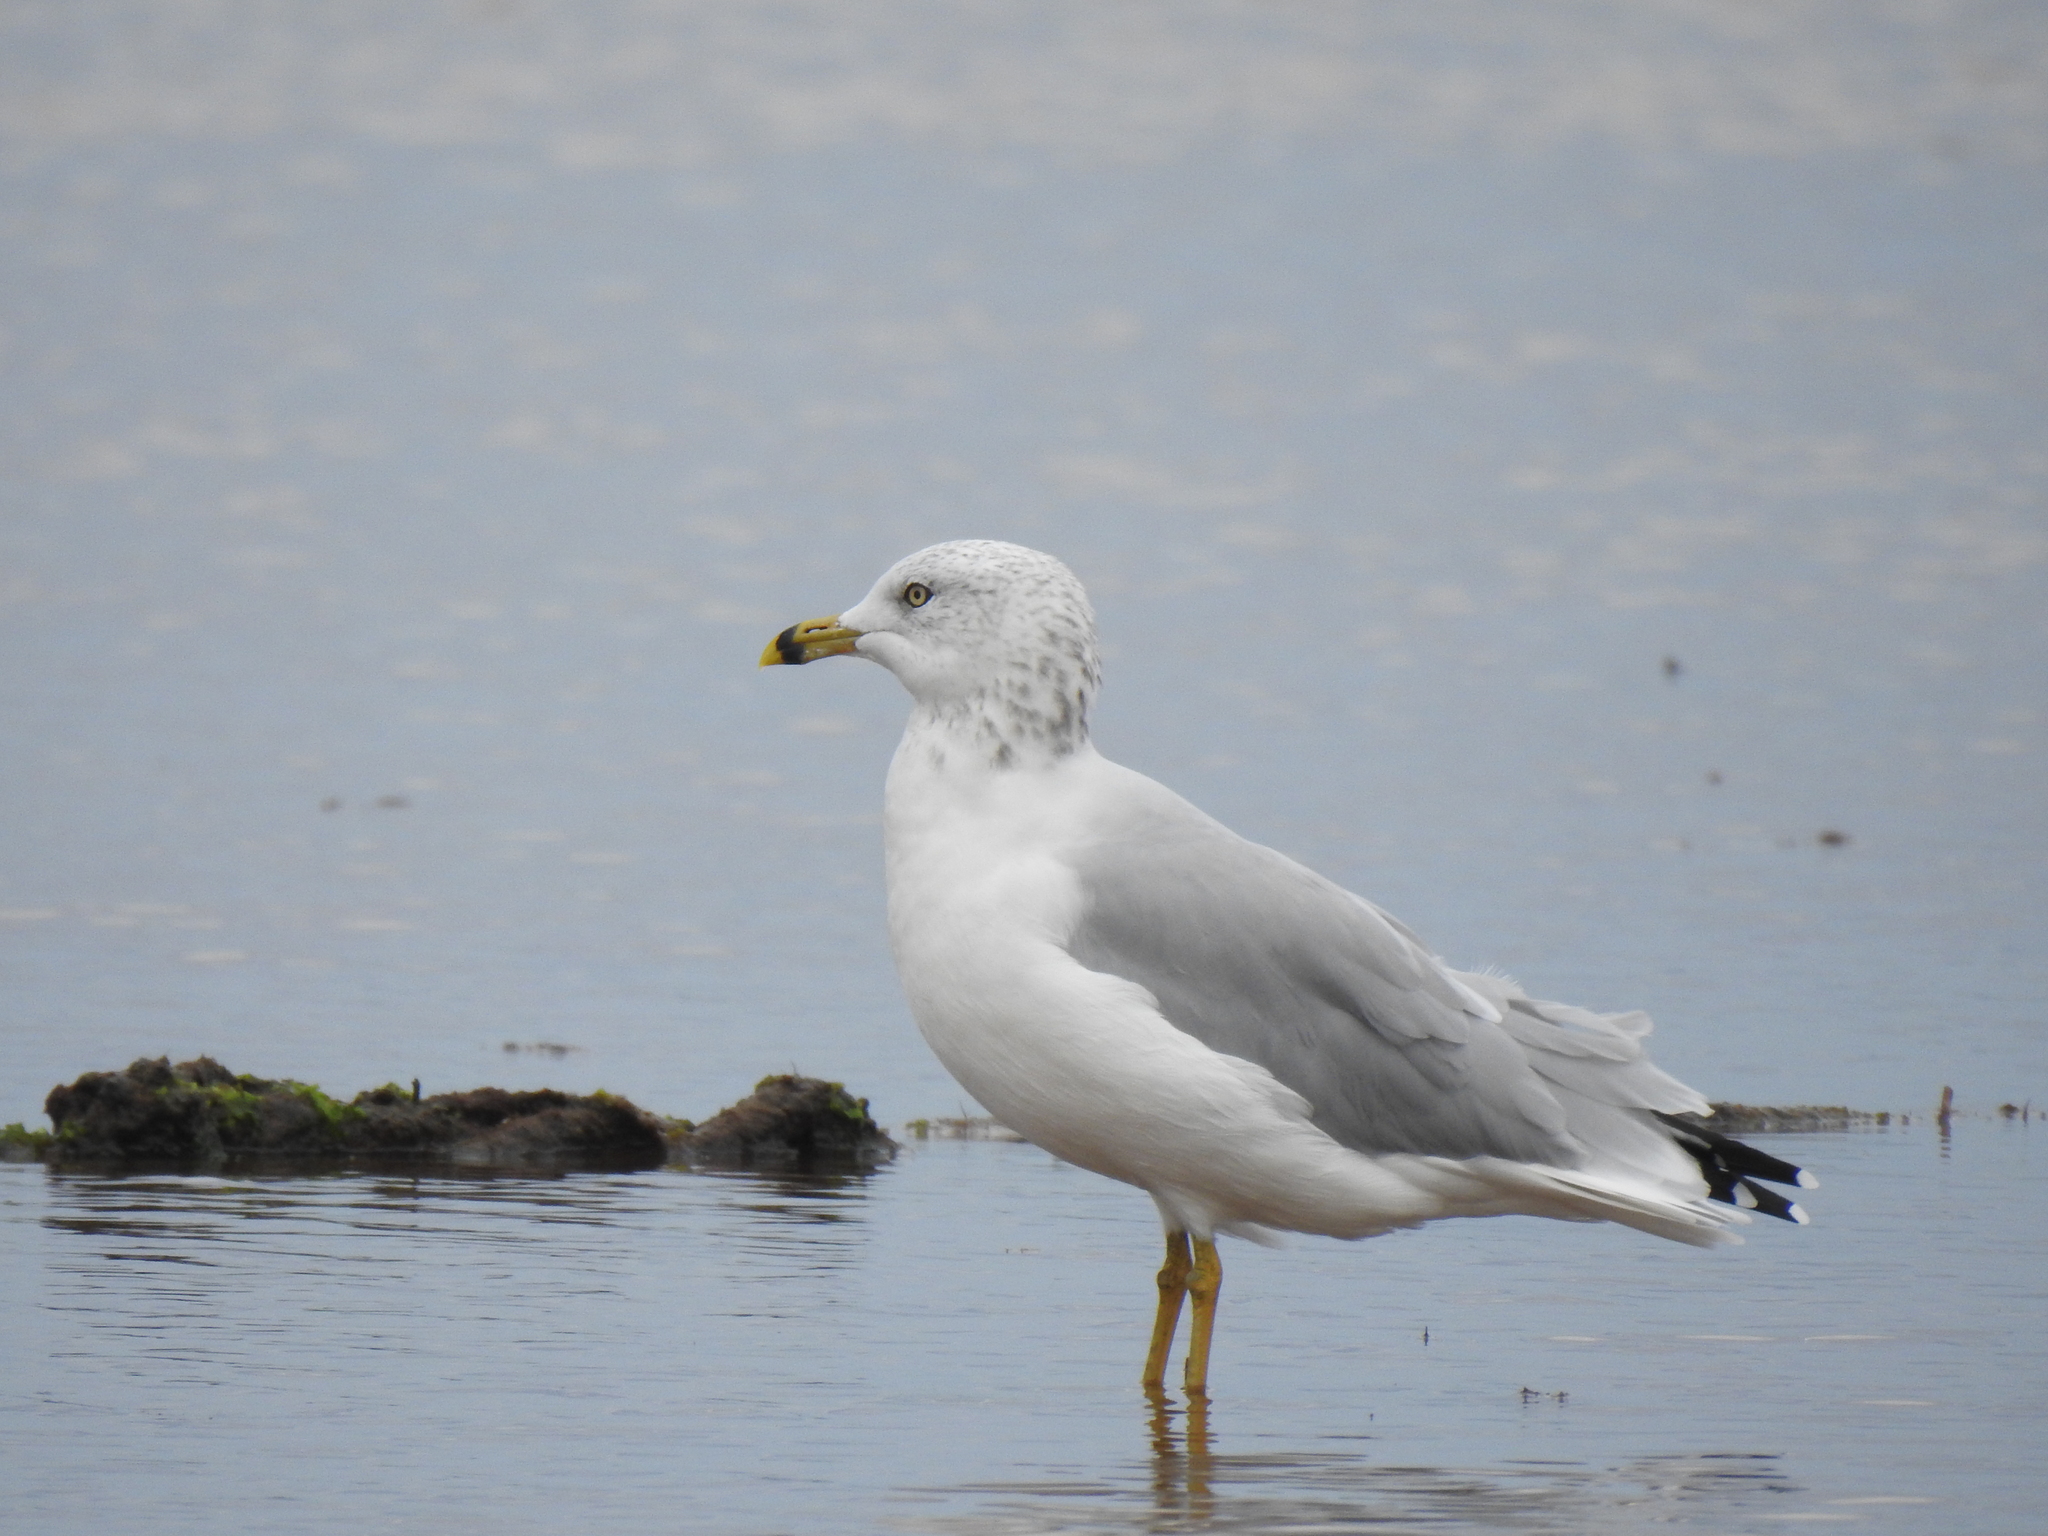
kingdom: Animalia
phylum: Chordata
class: Aves
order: Charadriiformes
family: Laridae
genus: Larus
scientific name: Larus delawarensis
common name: Ring-billed gull
